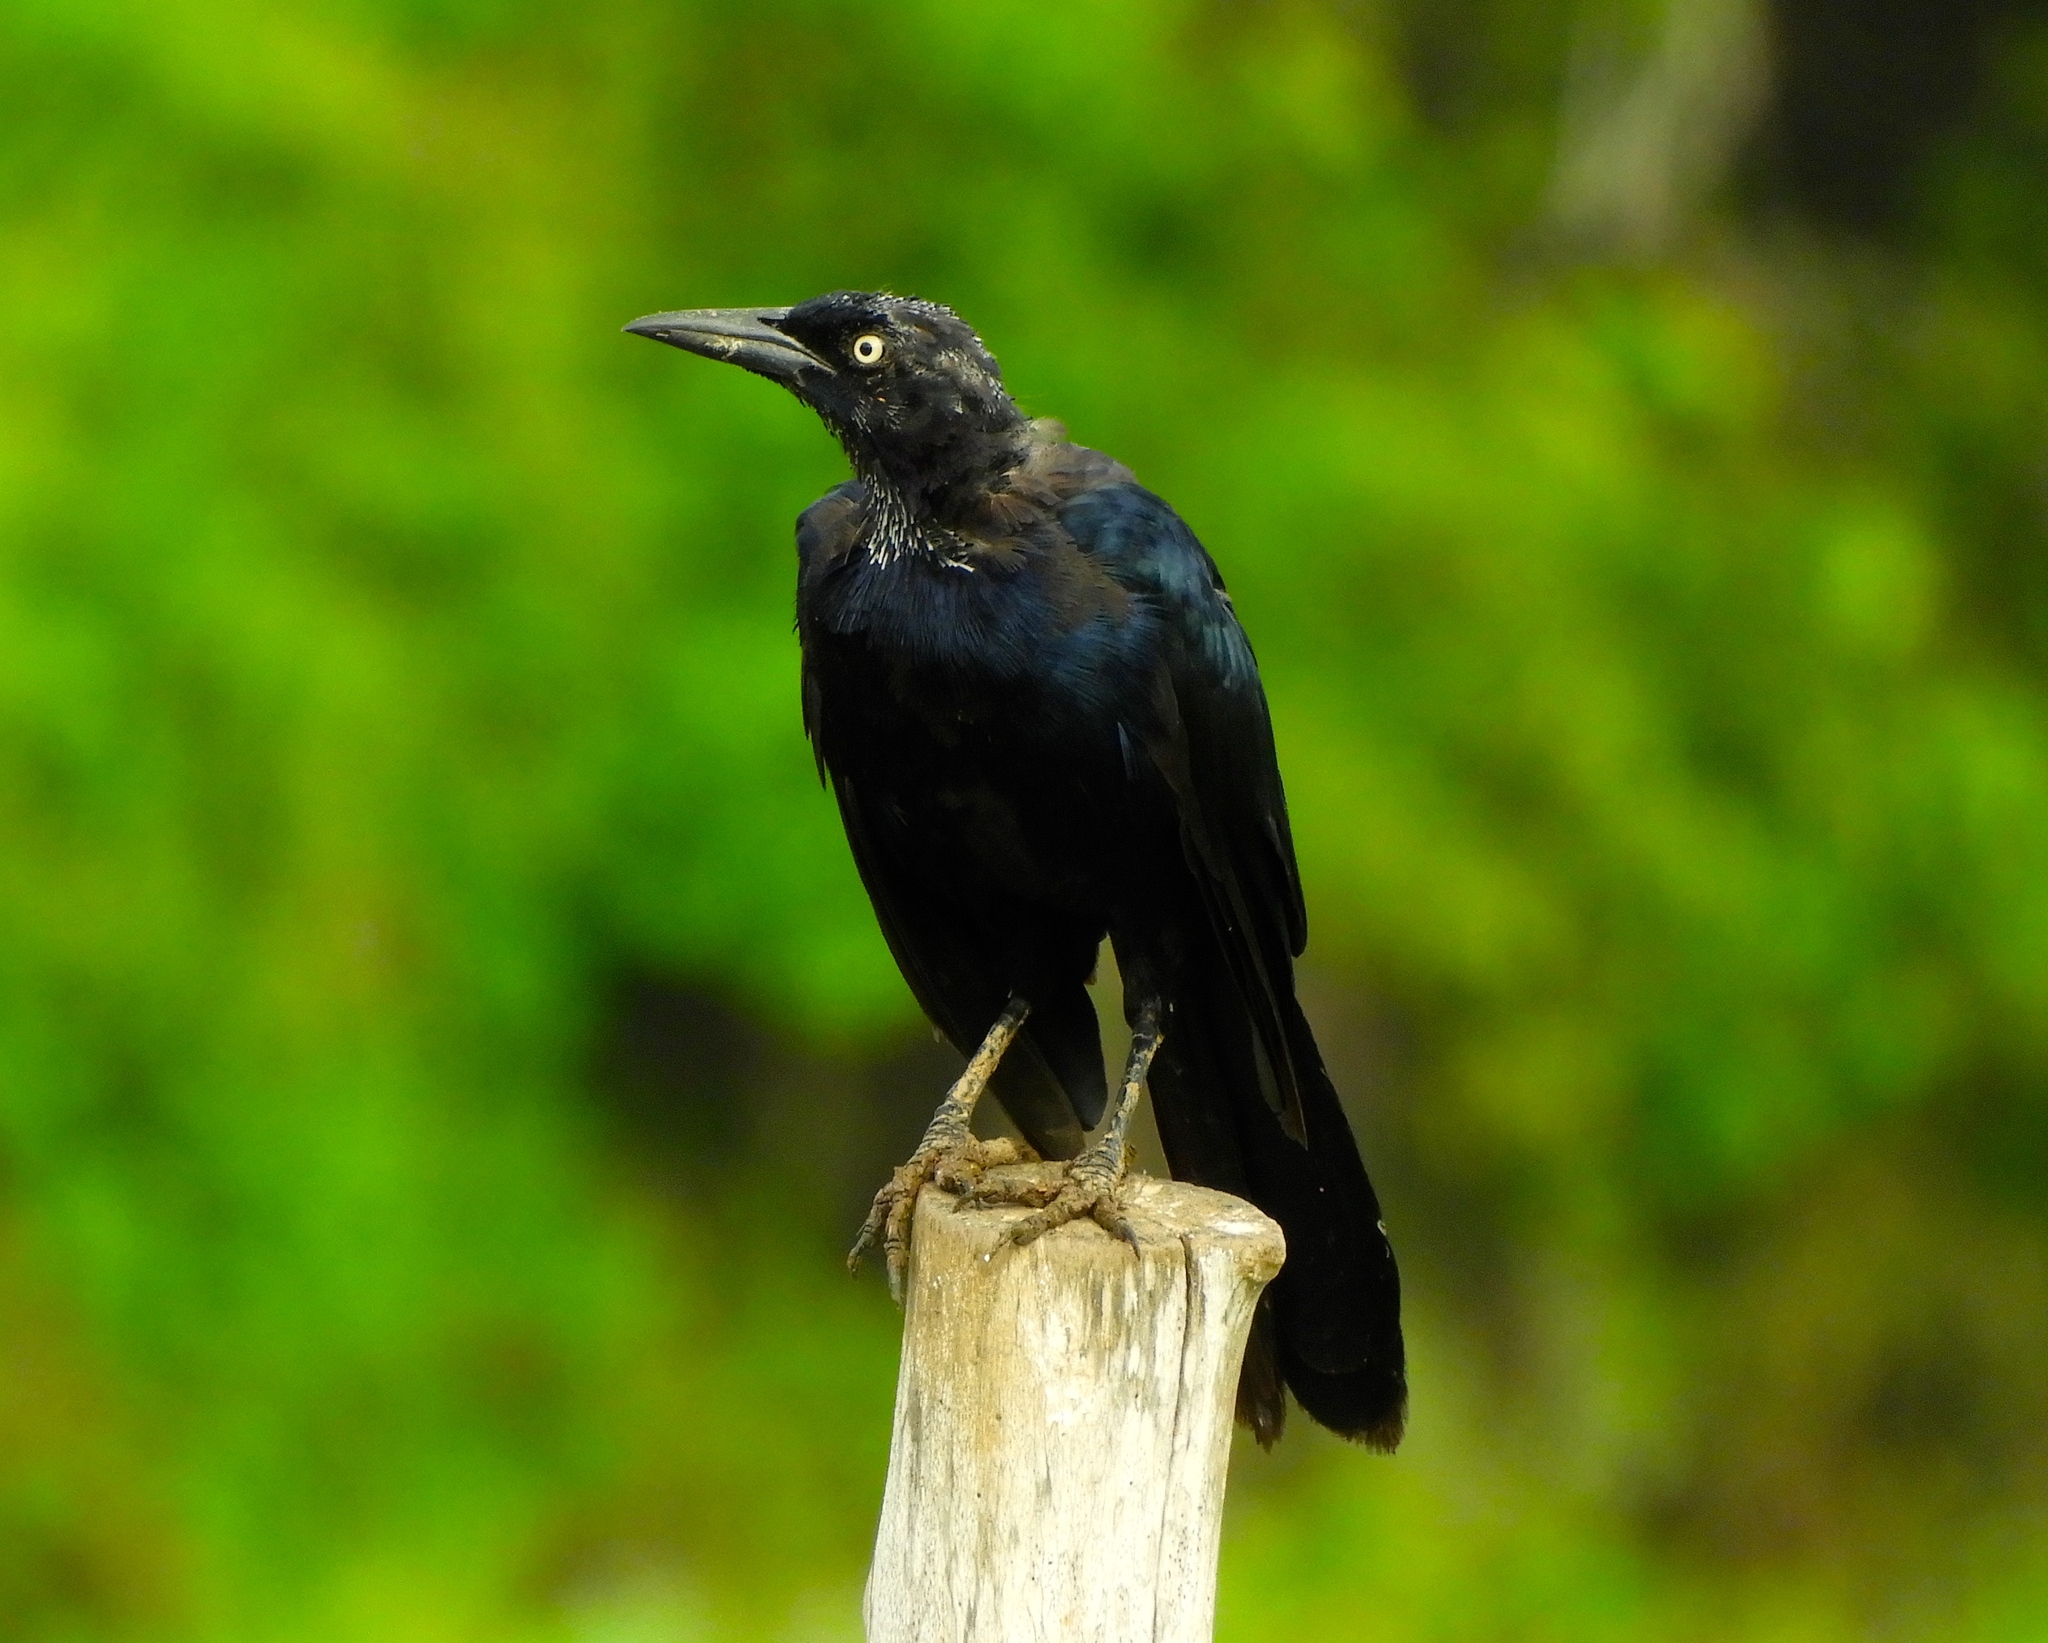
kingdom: Animalia
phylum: Chordata
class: Aves
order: Passeriformes
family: Icteridae
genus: Quiscalus
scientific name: Quiscalus mexicanus
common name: Great-tailed grackle
